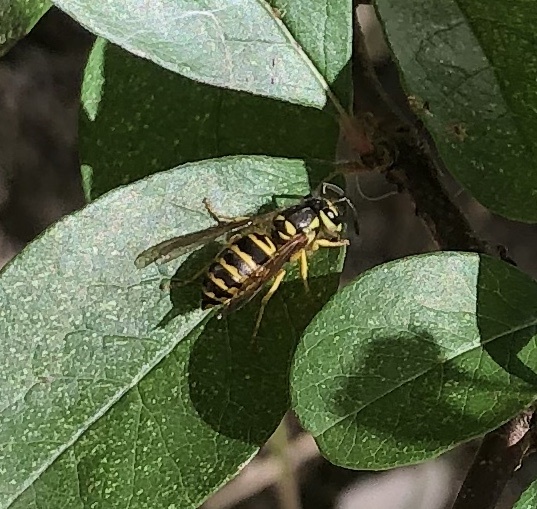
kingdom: Animalia
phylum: Arthropoda
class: Insecta
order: Hymenoptera
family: Vespidae
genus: Vespula
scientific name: Vespula maculifrons
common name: Eastern yellowjacket
